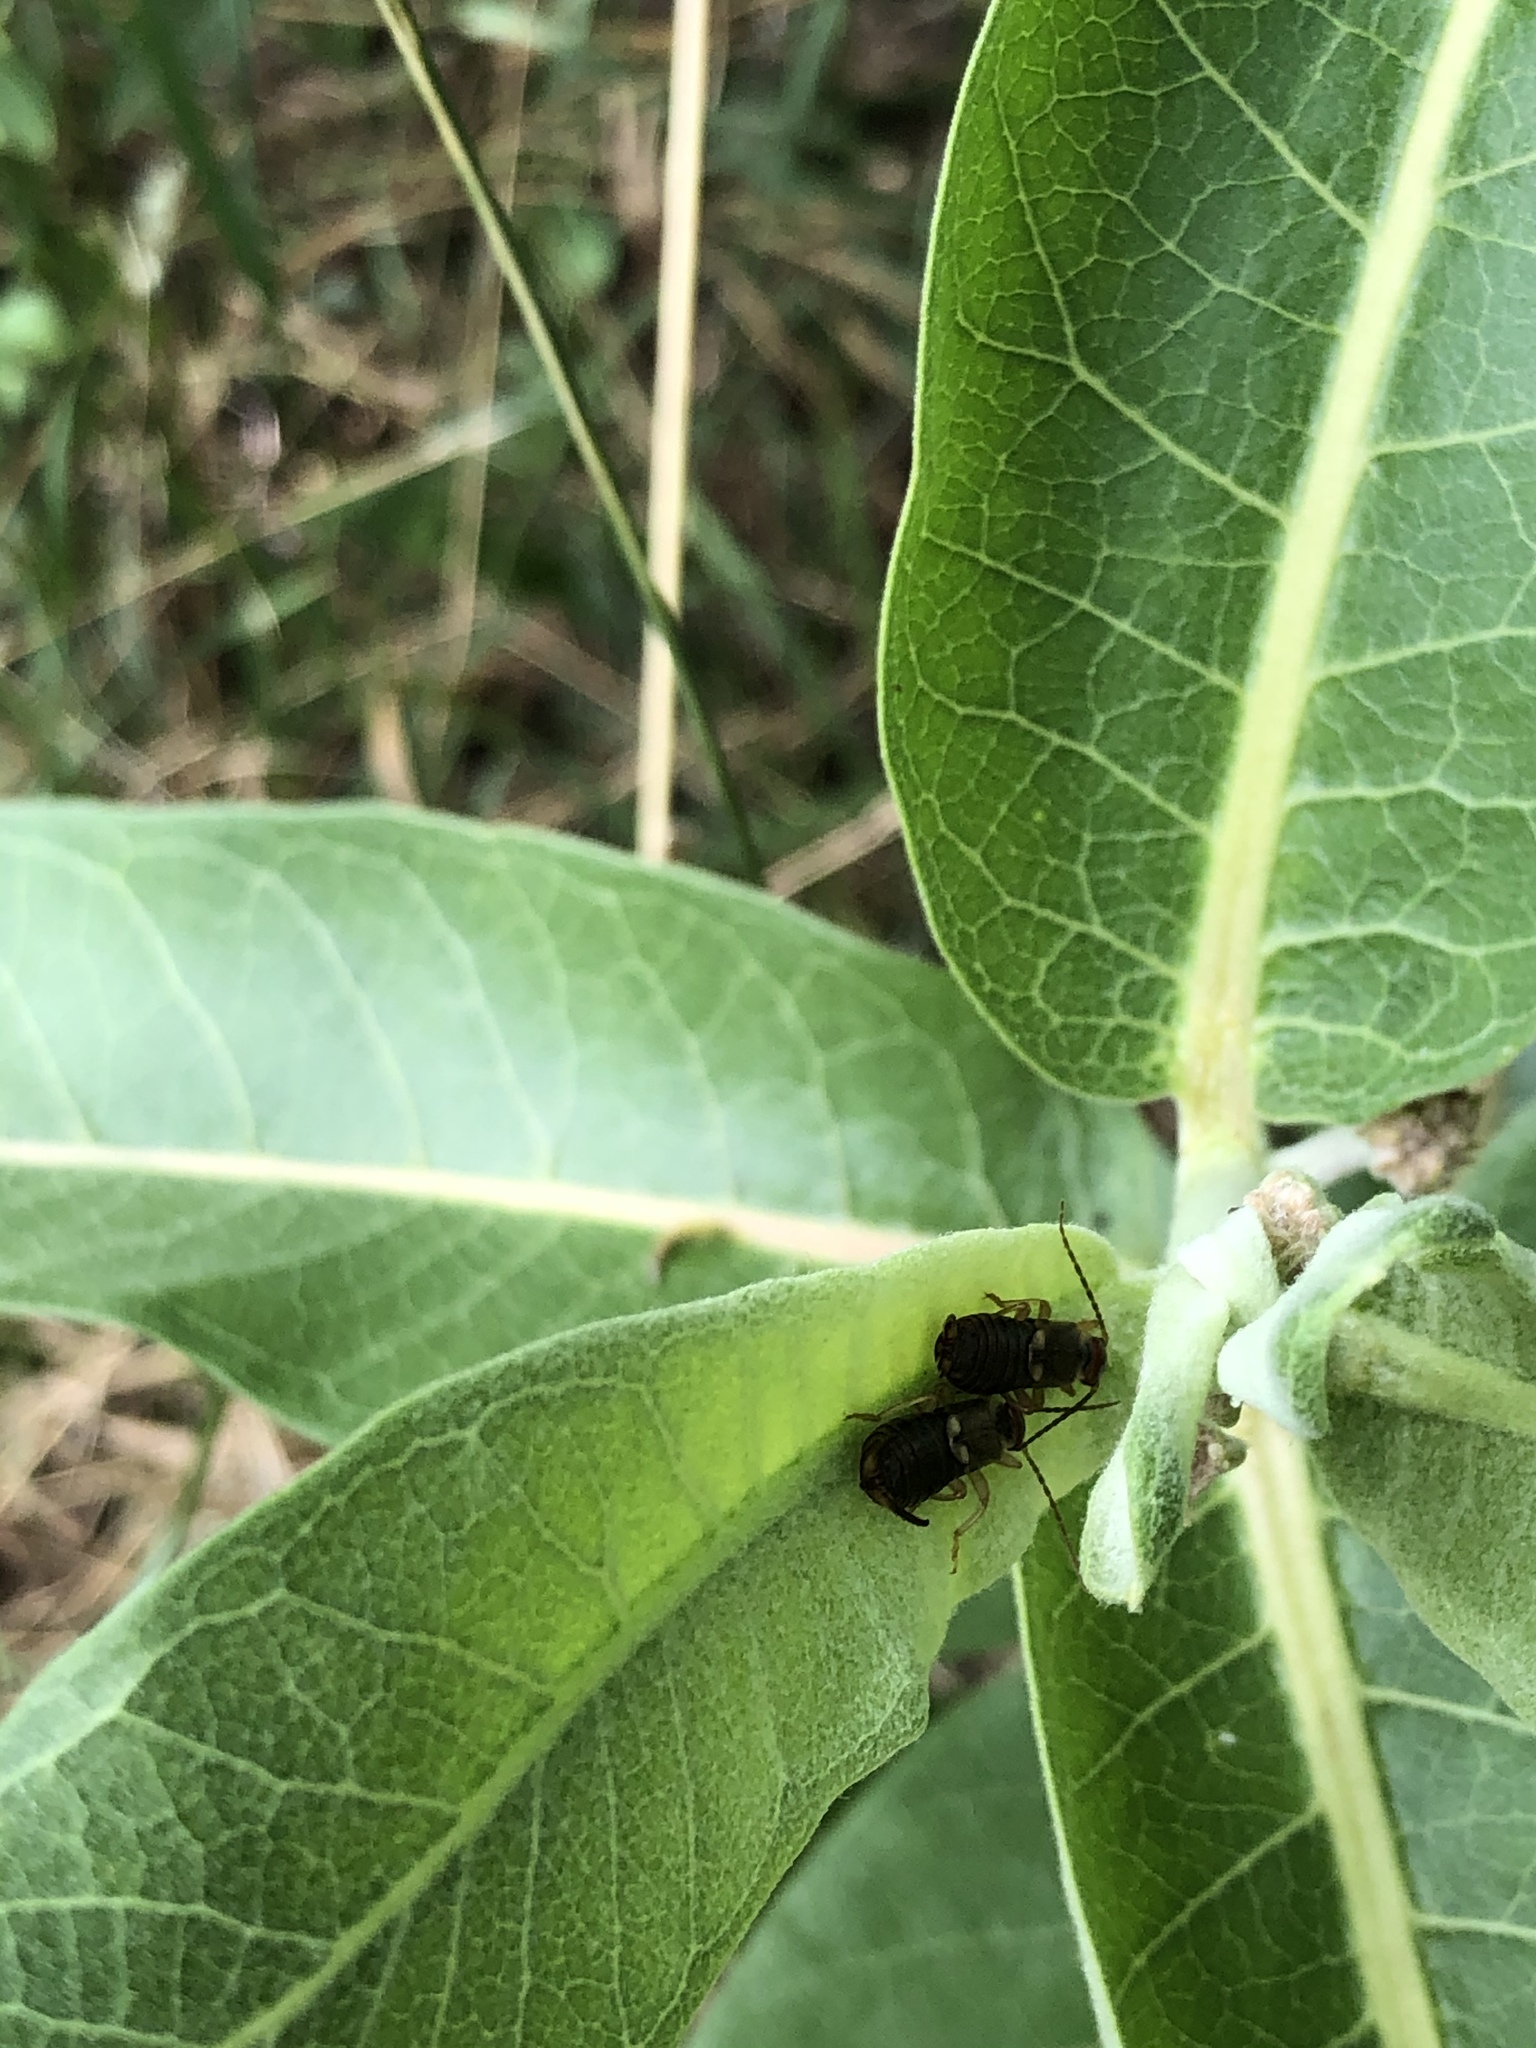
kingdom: Animalia
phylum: Arthropoda
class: Insecta
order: Dermaptera
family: Forficulidae
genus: Forficula
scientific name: Forficula
